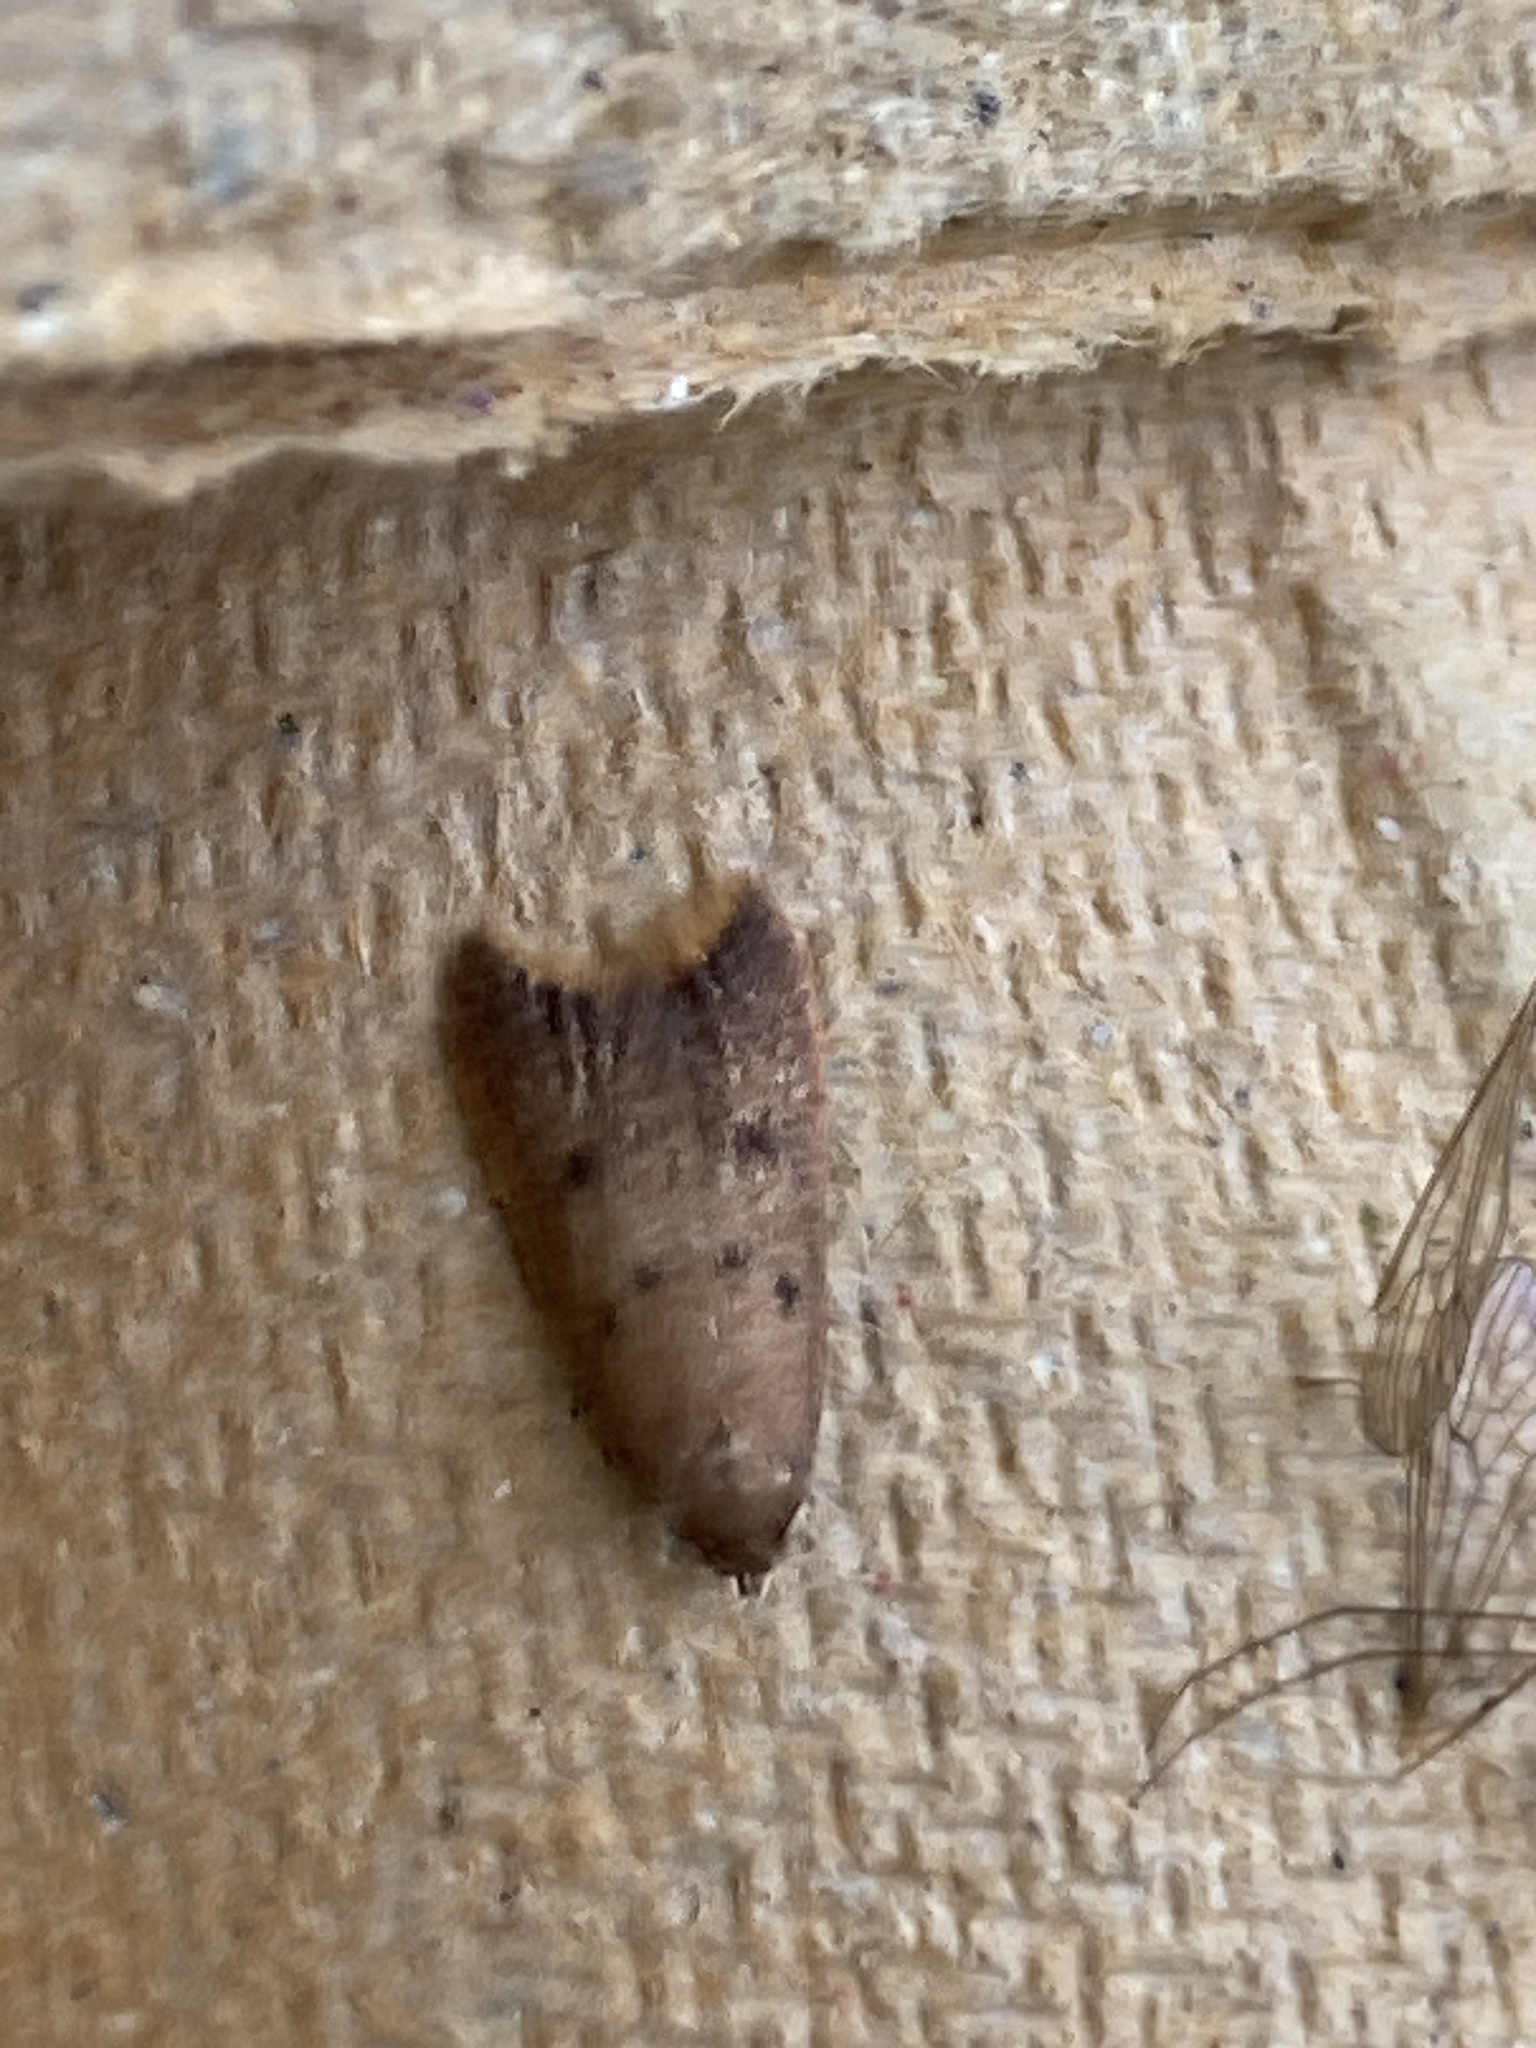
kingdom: Animalia
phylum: Arthropoda
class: Insecta
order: Lepidoptera
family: Oecophoridae
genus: Tachystola
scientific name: Tachystola acroxantha
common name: Ruddy streak
